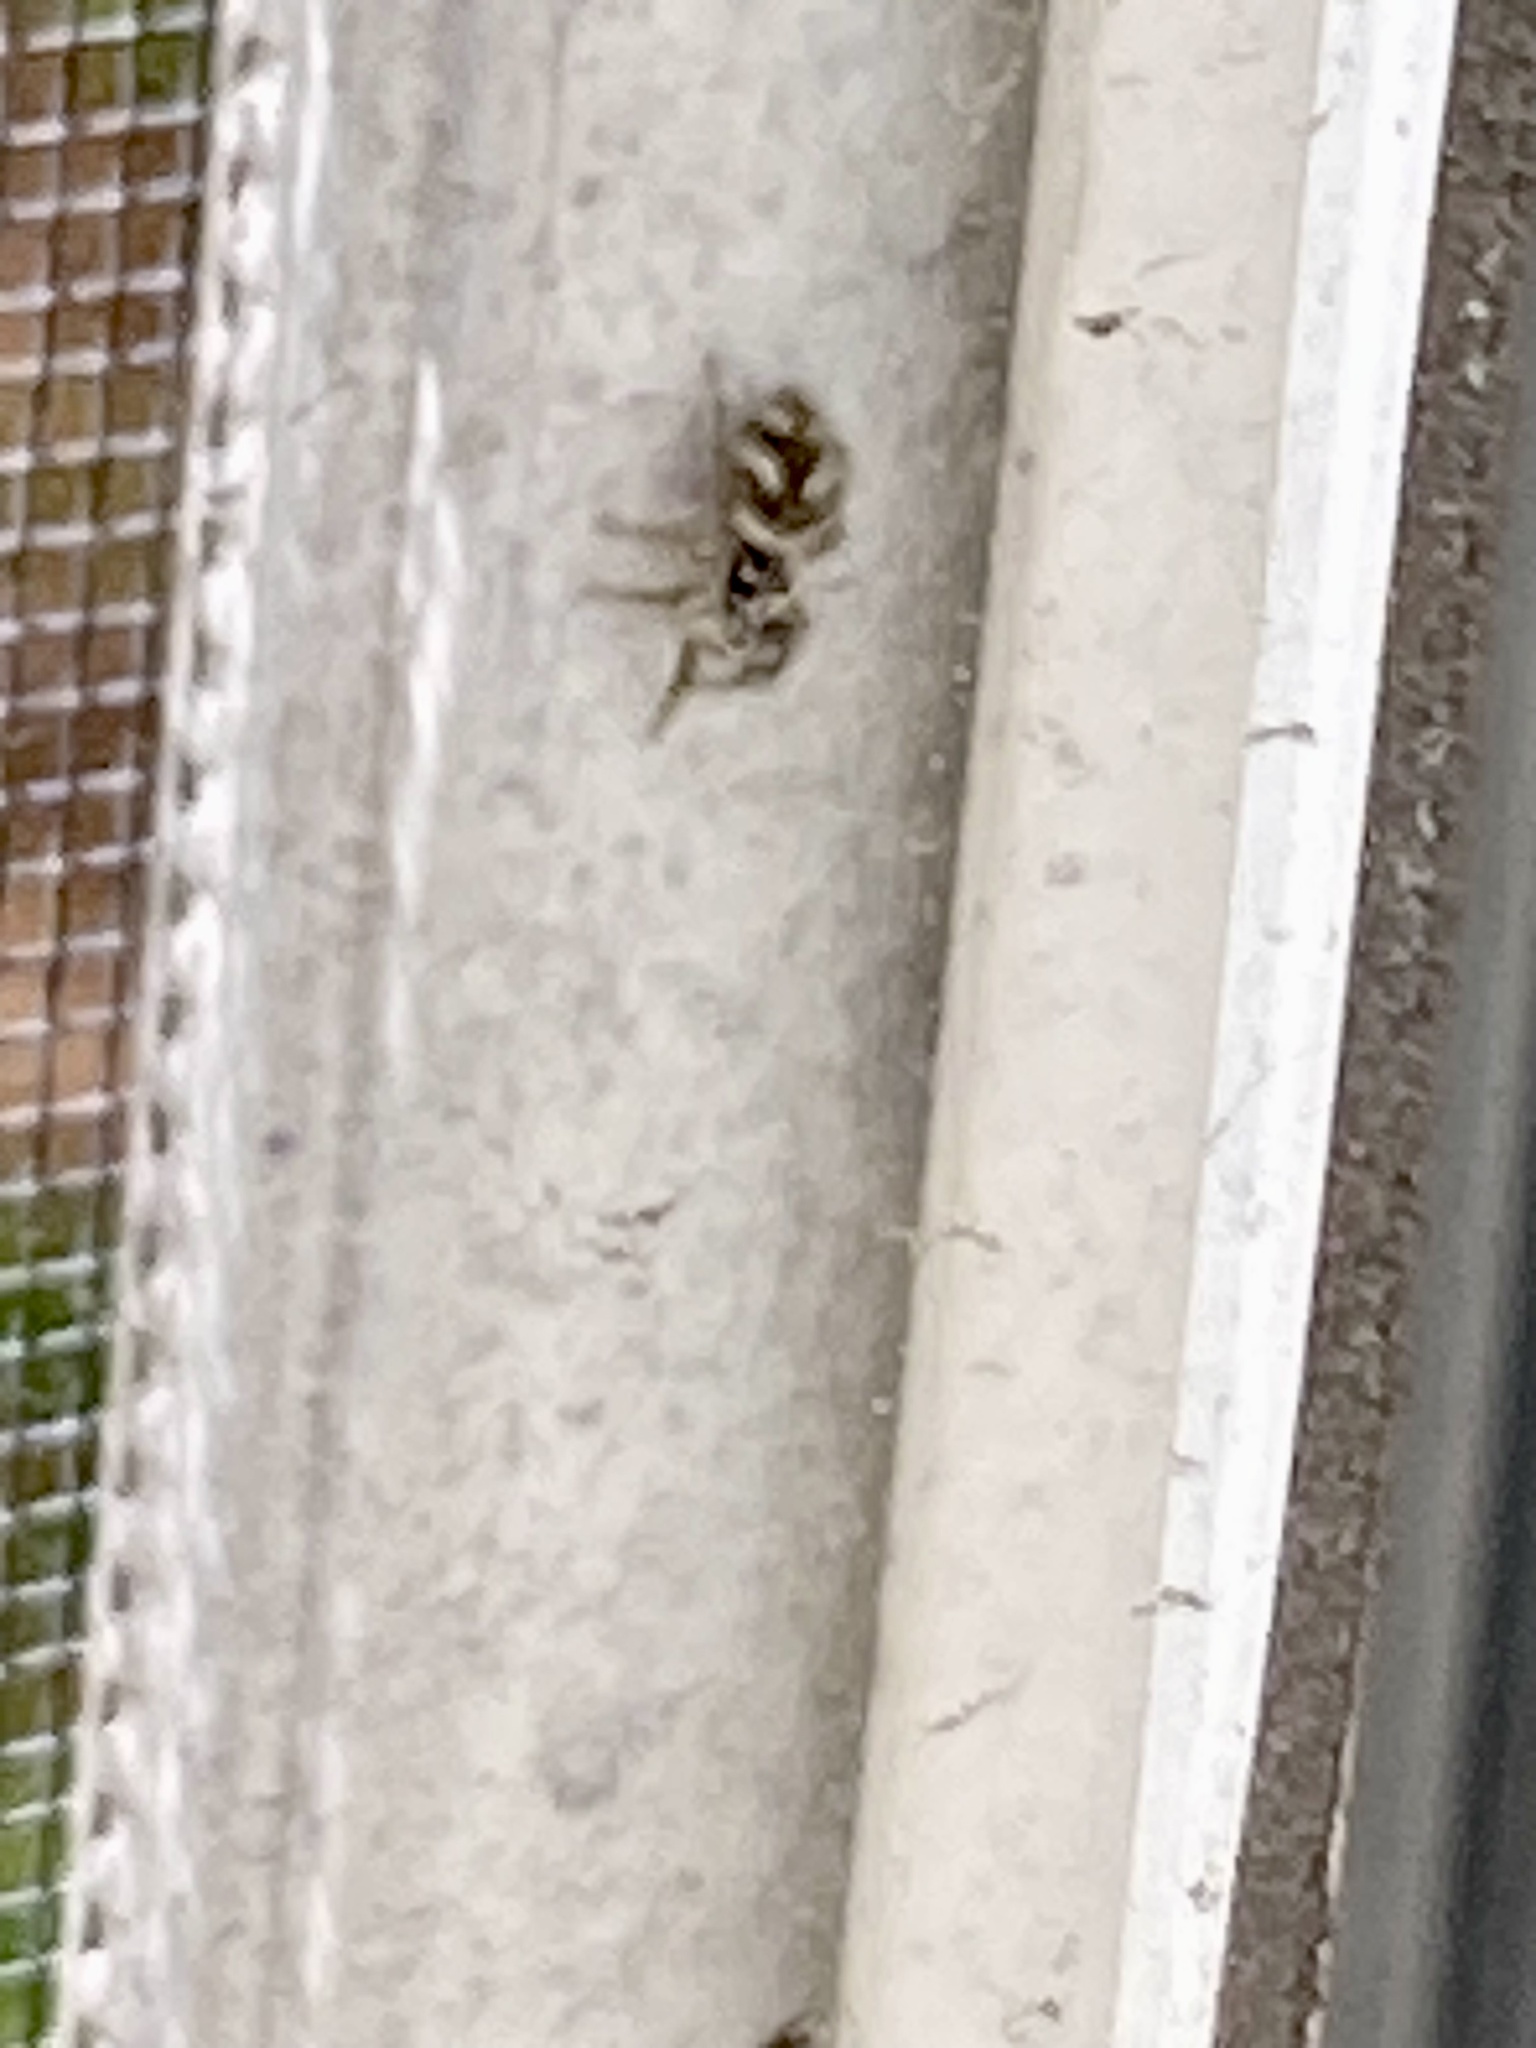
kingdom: Animalia
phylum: Arthropoda
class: Arachnida
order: Araneae
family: Salticidae
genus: Salticus
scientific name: Salticus scenicus
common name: Zebra jumper
